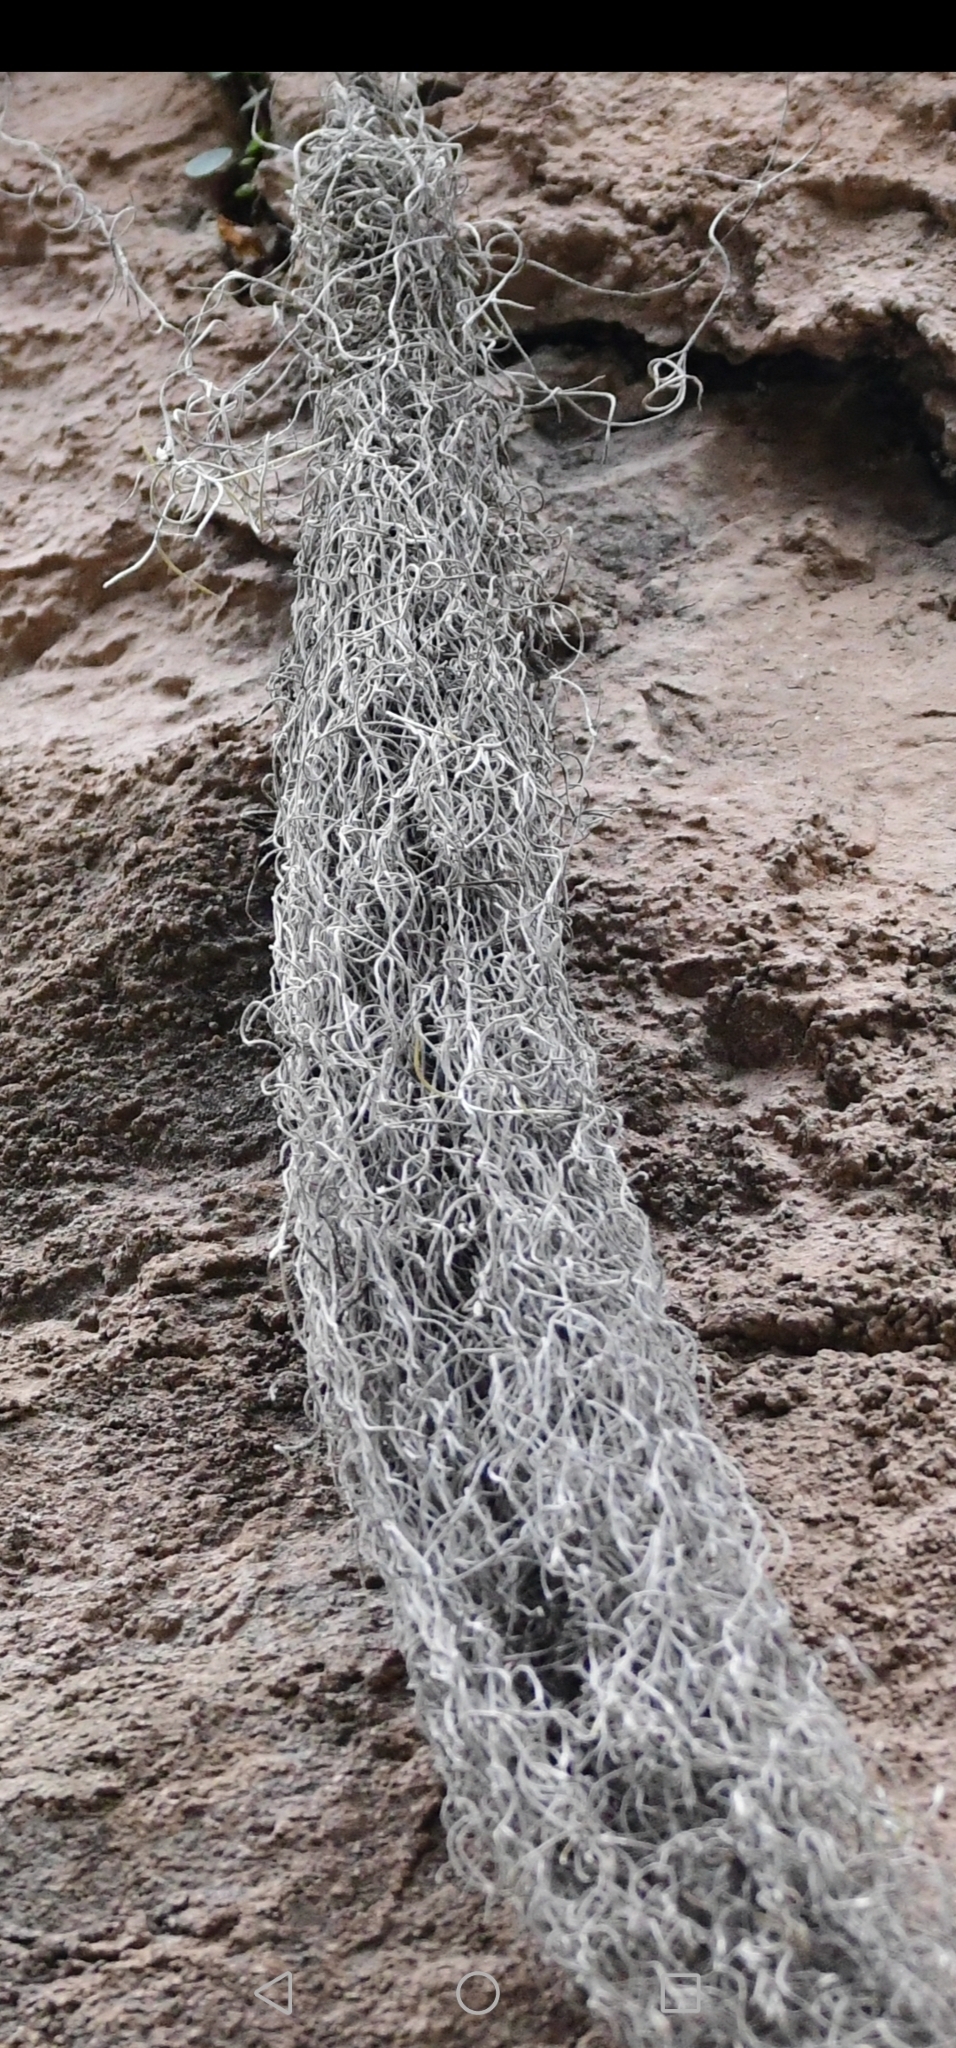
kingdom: Plantae
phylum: Tracheophyta
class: Liliopsida
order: Poales
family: Bromeliaceae
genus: Tillandsia
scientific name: Tillandsia usneoides
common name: Spanish moss
